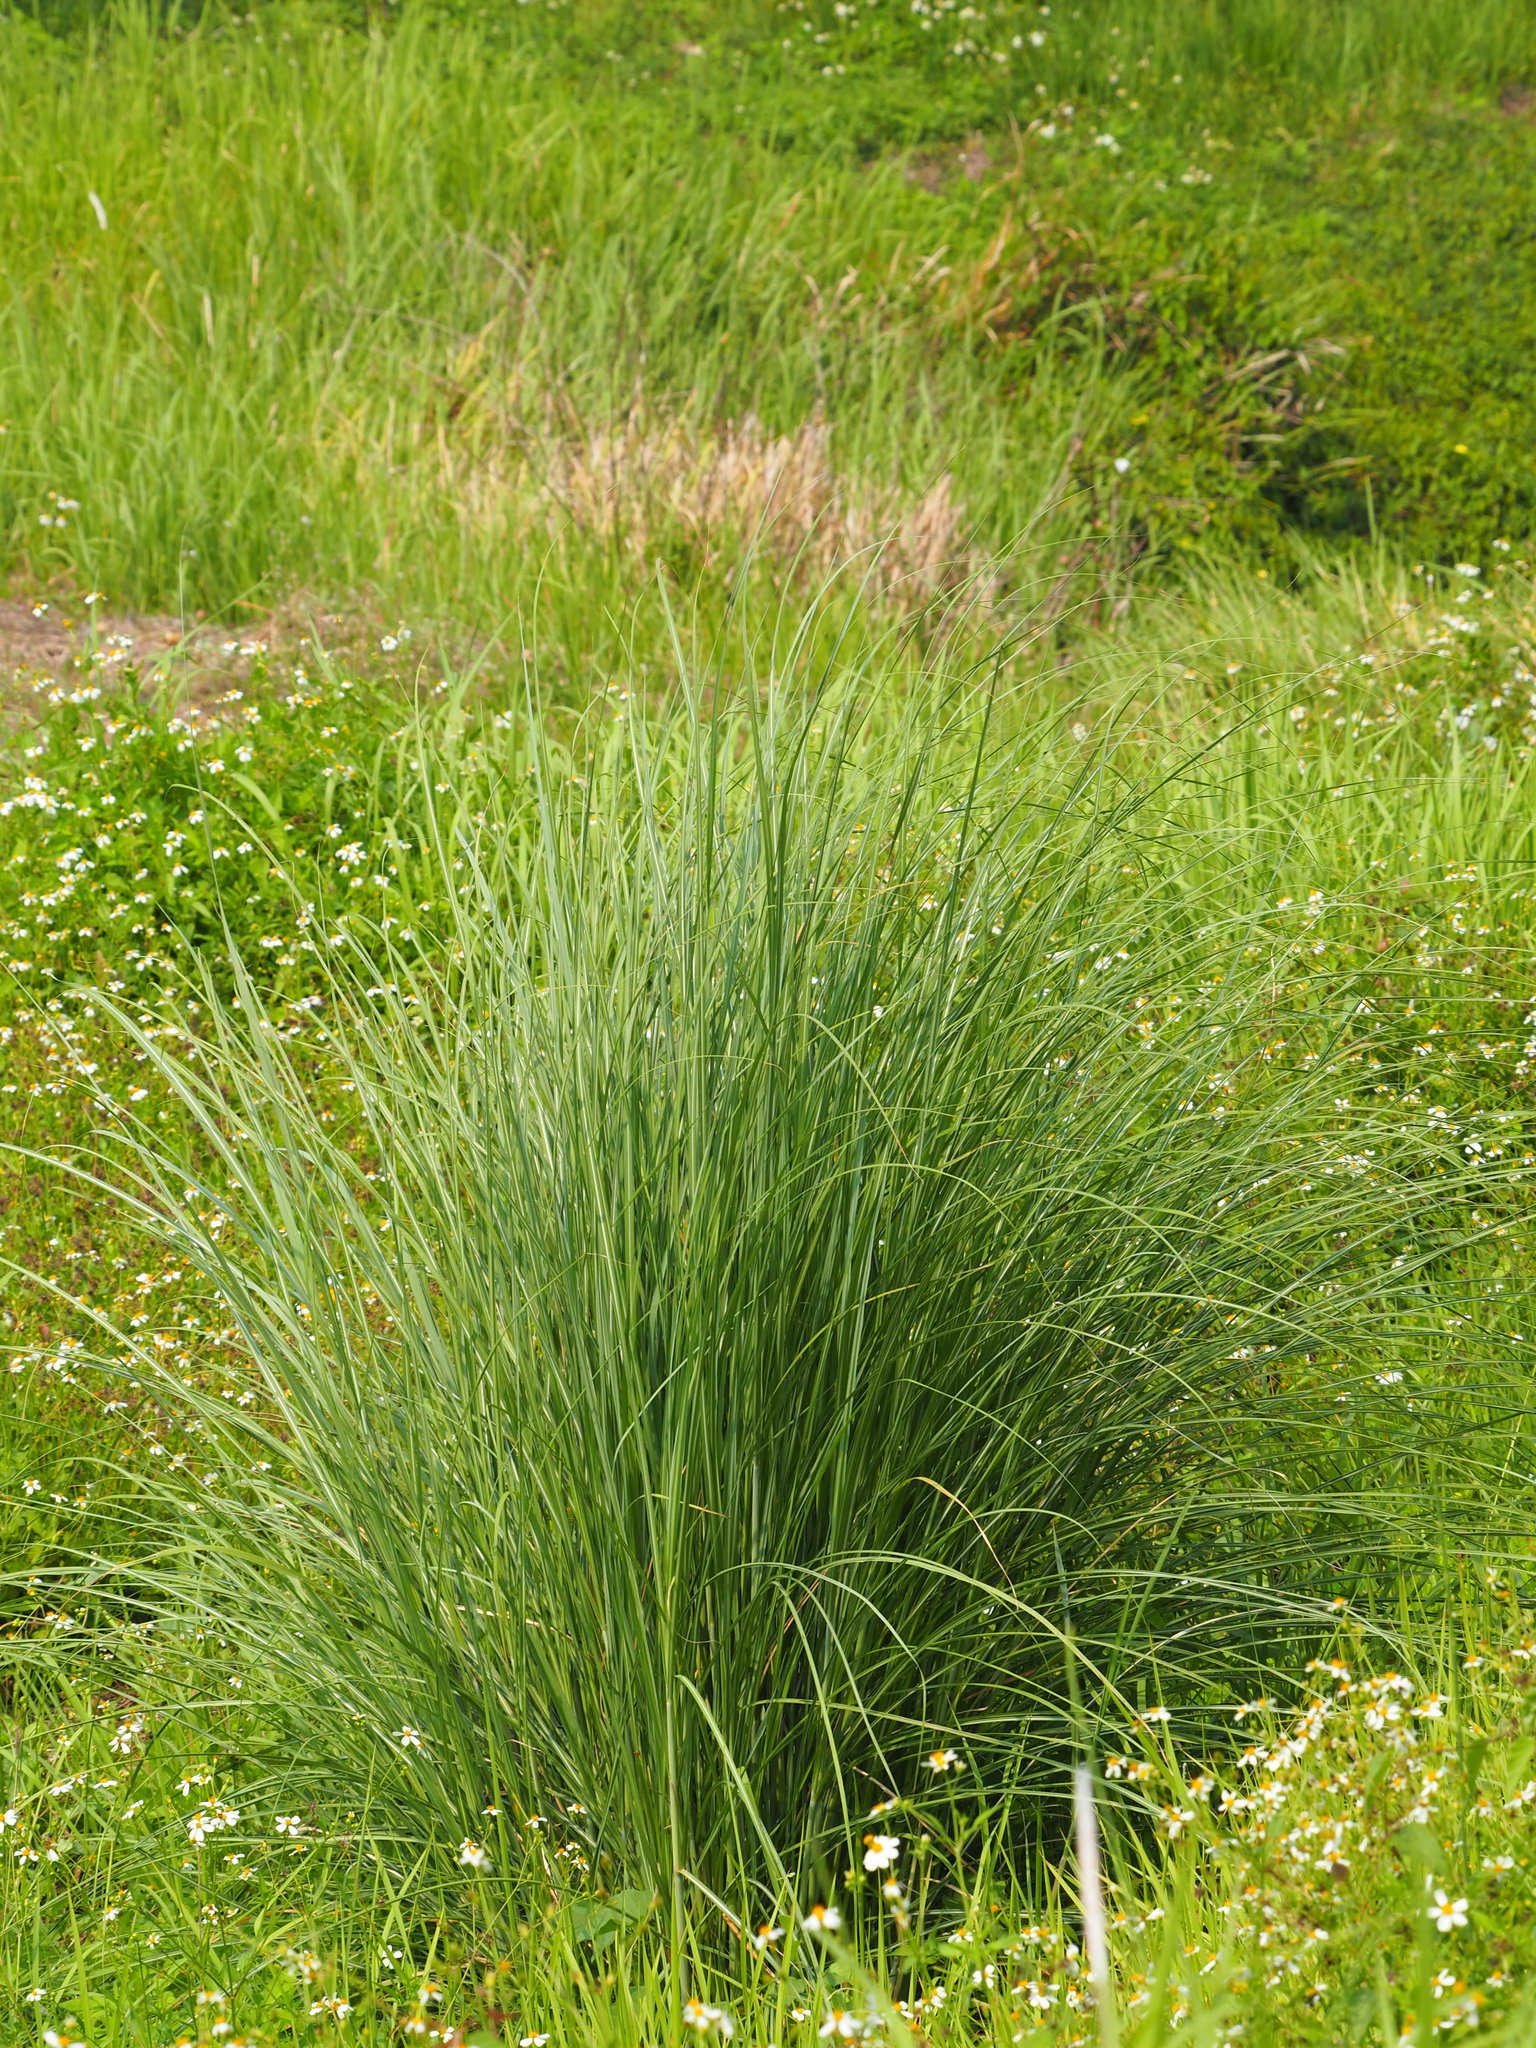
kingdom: Plantae
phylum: Tracheophyta
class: Liliopsida
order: Poales
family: Poaceae
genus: Saccharum
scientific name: Saccharum spontaneum
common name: Wild sugarcane
